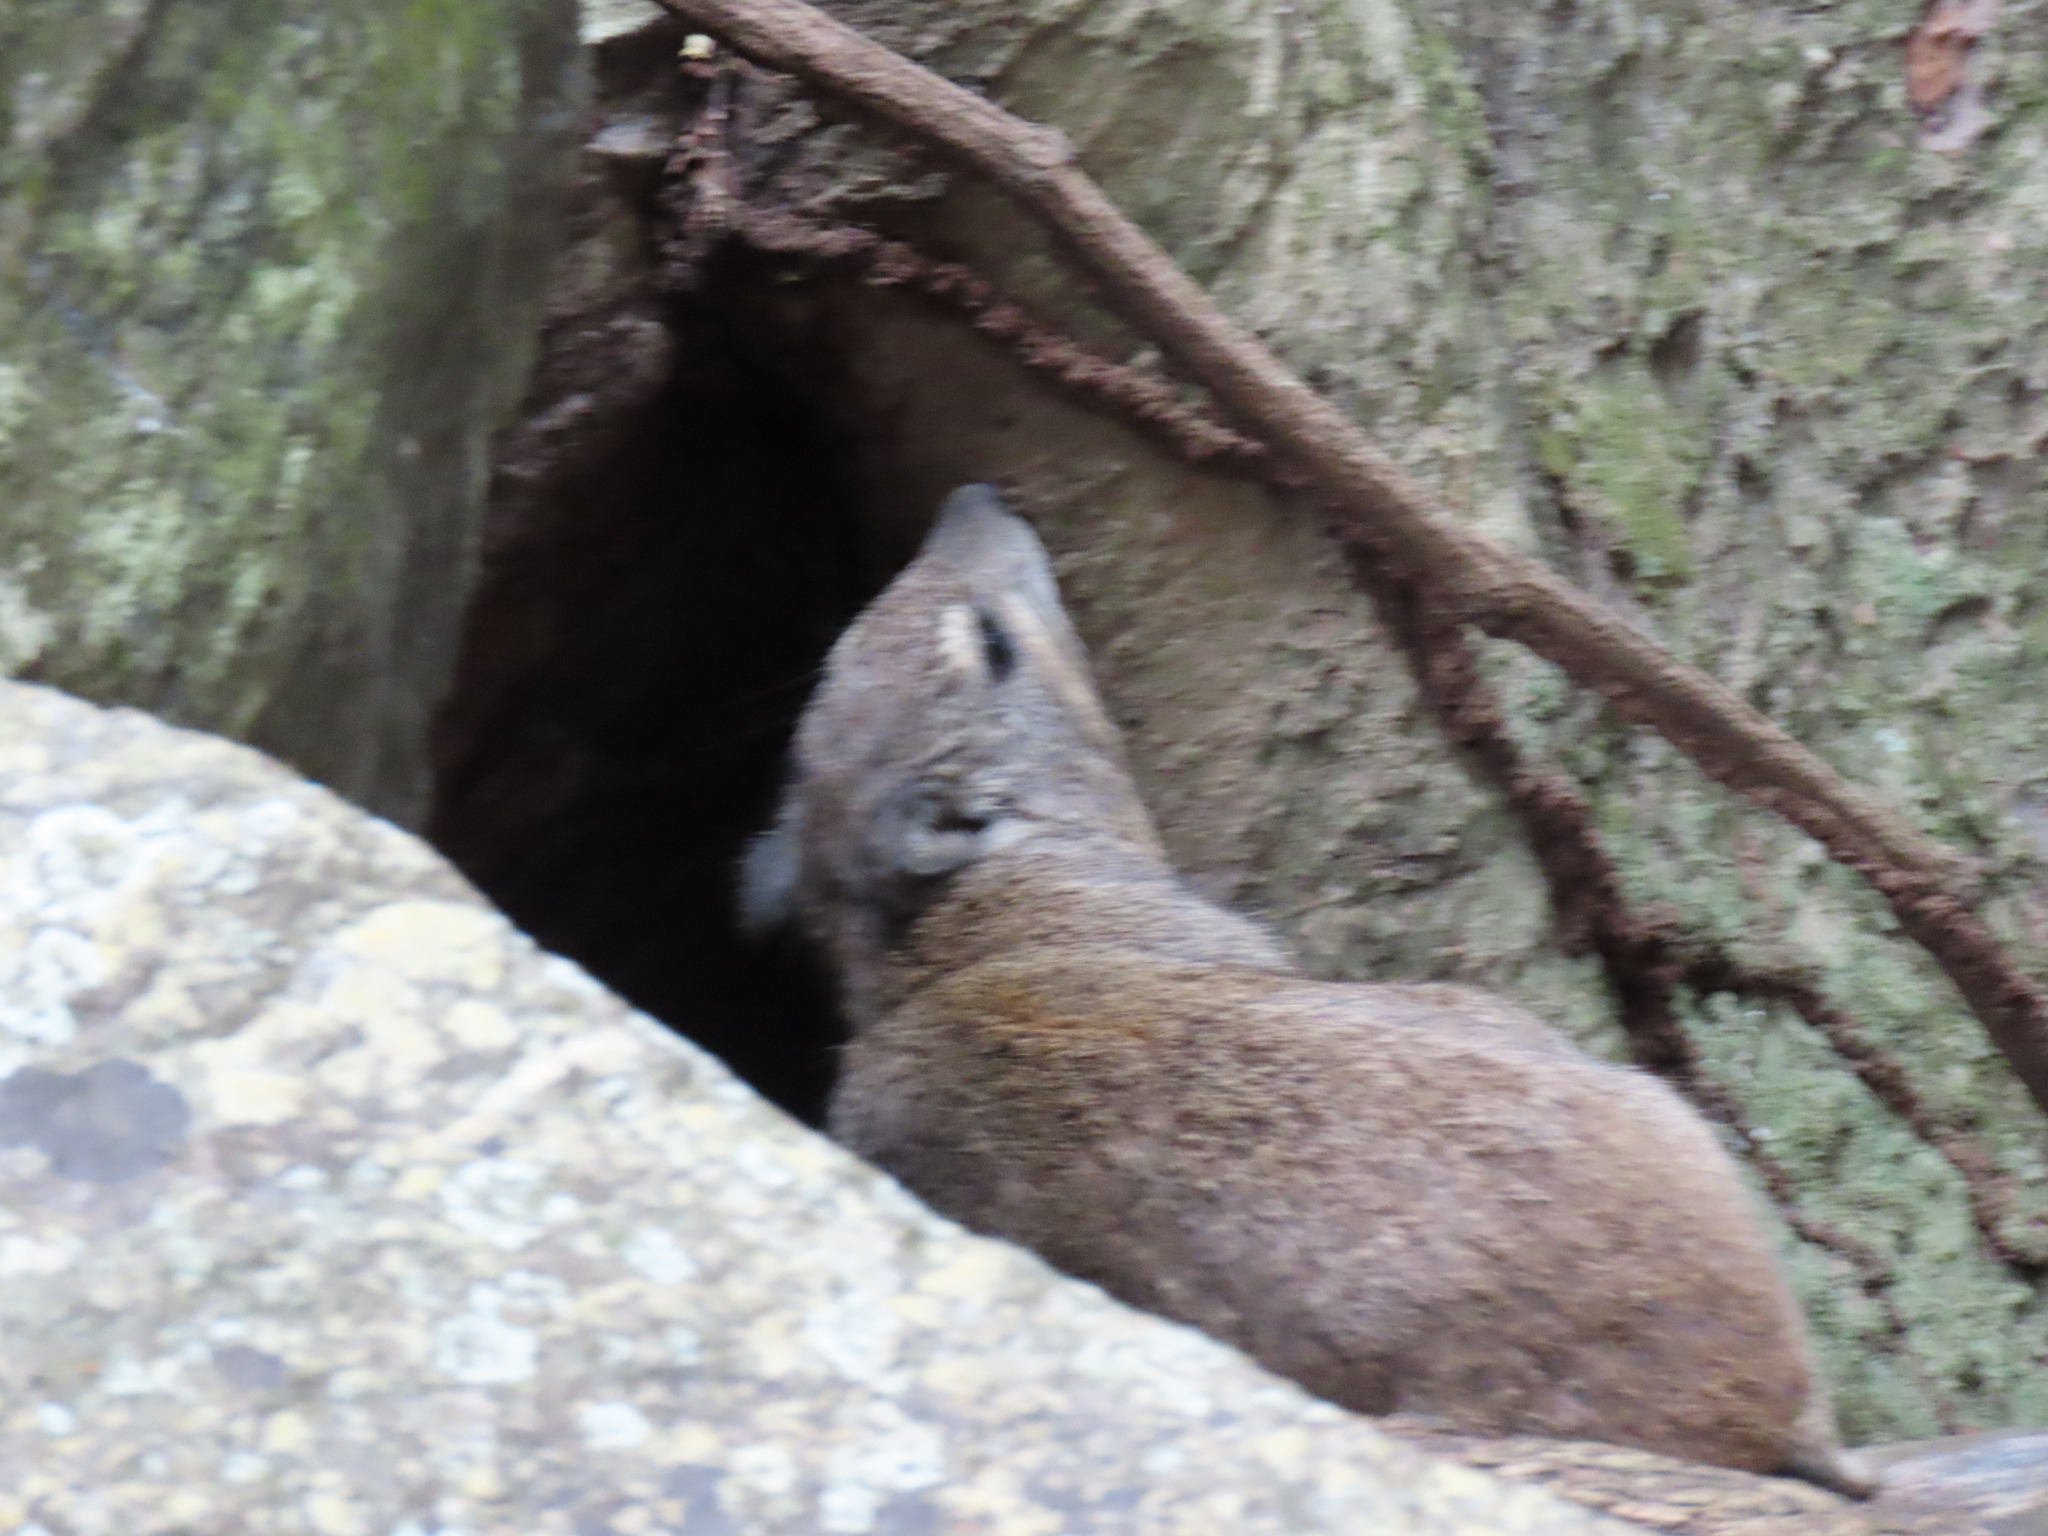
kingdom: Animalia
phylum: Chordata
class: Mammalia
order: Hyracoidea
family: Procaviidae
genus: Heterohyrax
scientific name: Heterohyrax brucei
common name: Bush hyrax
